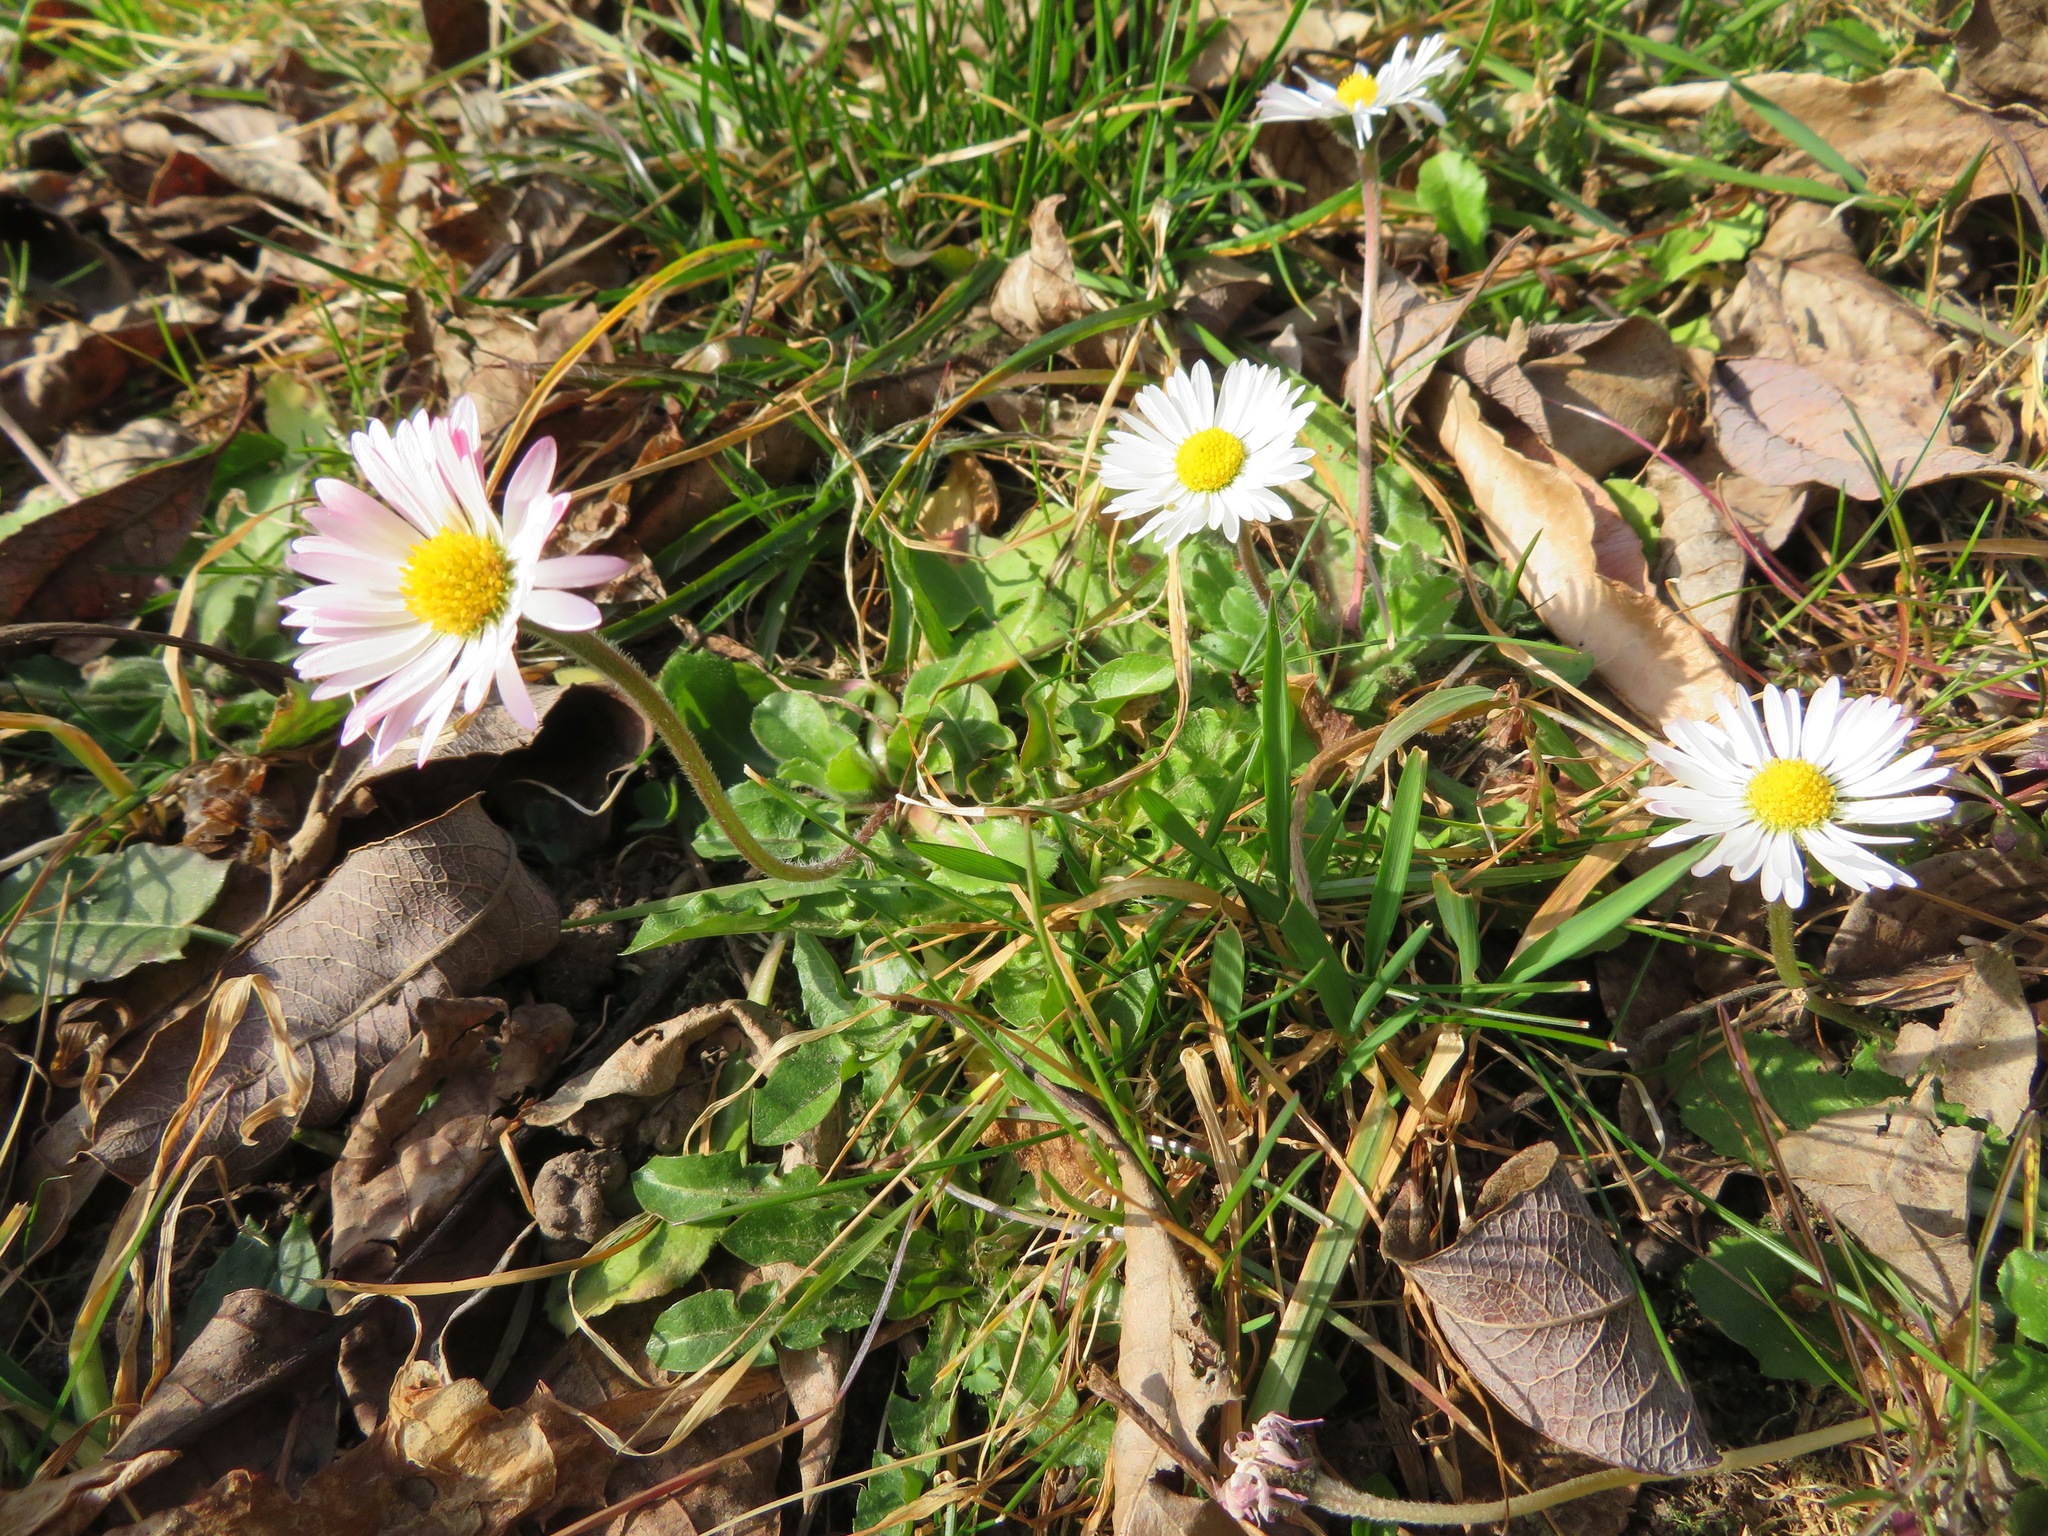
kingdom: Plantae
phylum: Tracheophyta
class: Magnoliopsida
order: Asterales
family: Asteraceae
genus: Bellis
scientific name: Bellis perennis
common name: Lawndaisy
